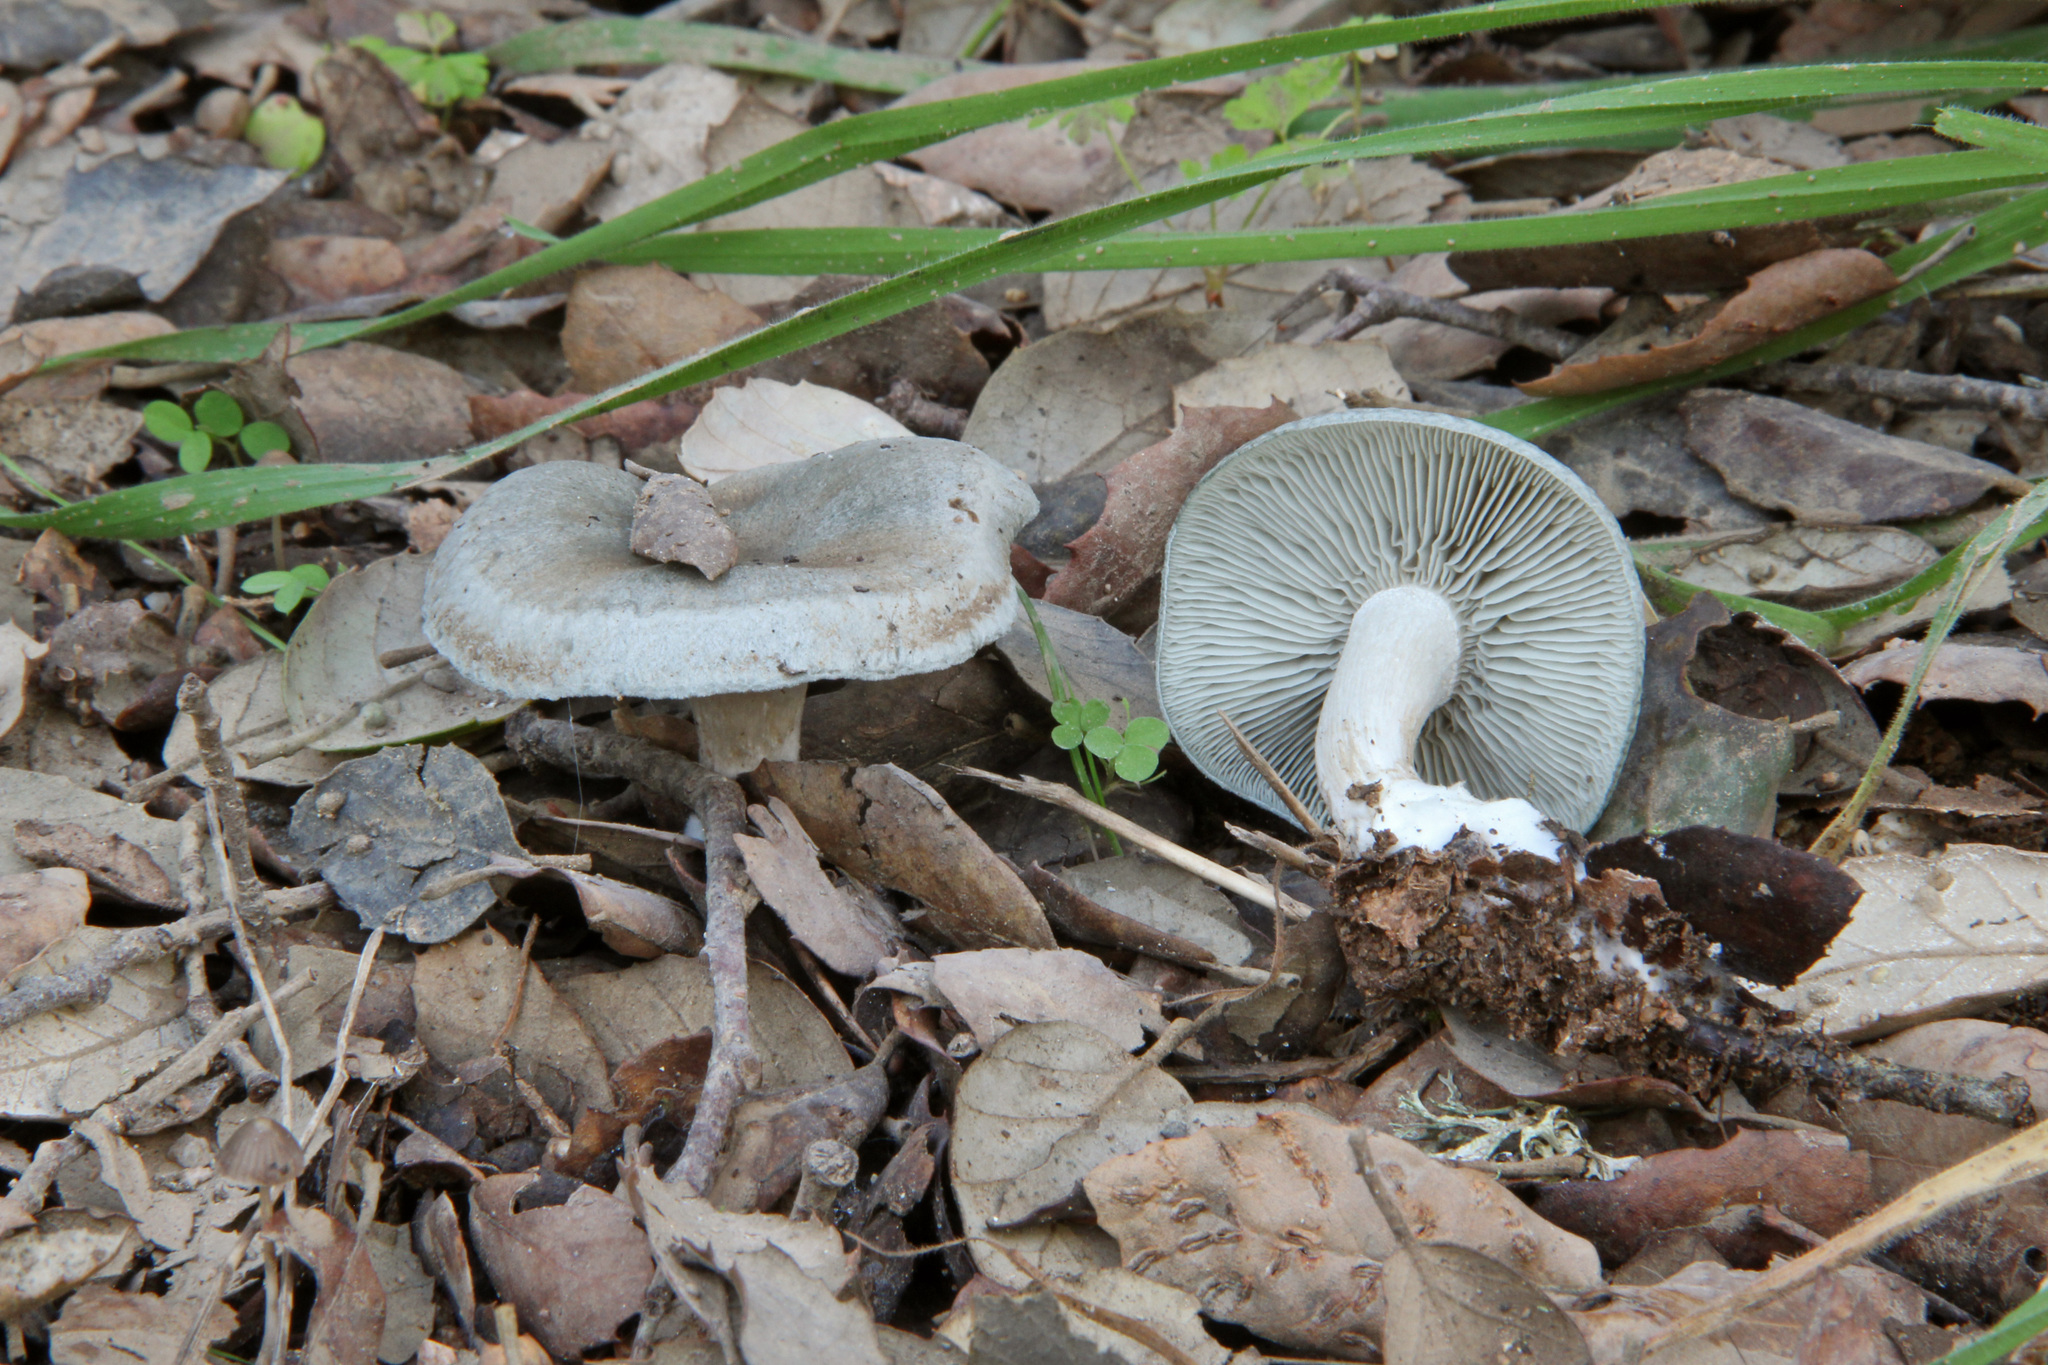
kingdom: Fungi
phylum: Basidiomycota
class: Agaricomycetes
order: Agaricales
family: Tricholomataceae
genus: Collybia
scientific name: Collybia
